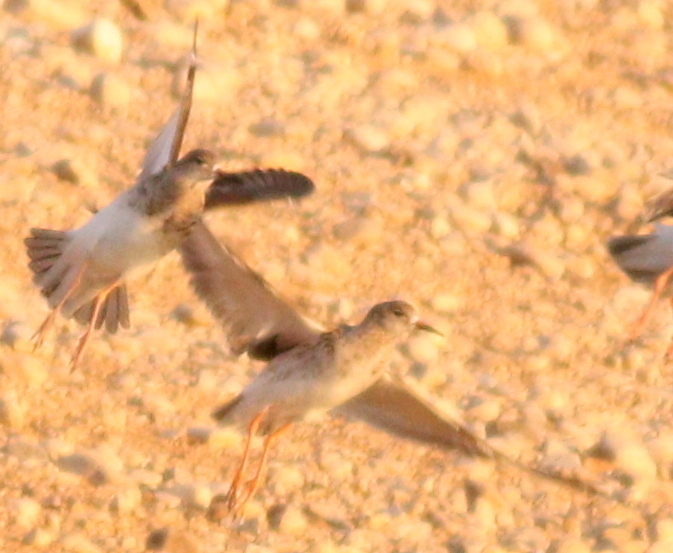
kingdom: Animalia
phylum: Chordata
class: Aves
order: Charadriiformes
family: Scolopacidae
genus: Calidris
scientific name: Calidris pugnax
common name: Ruff
